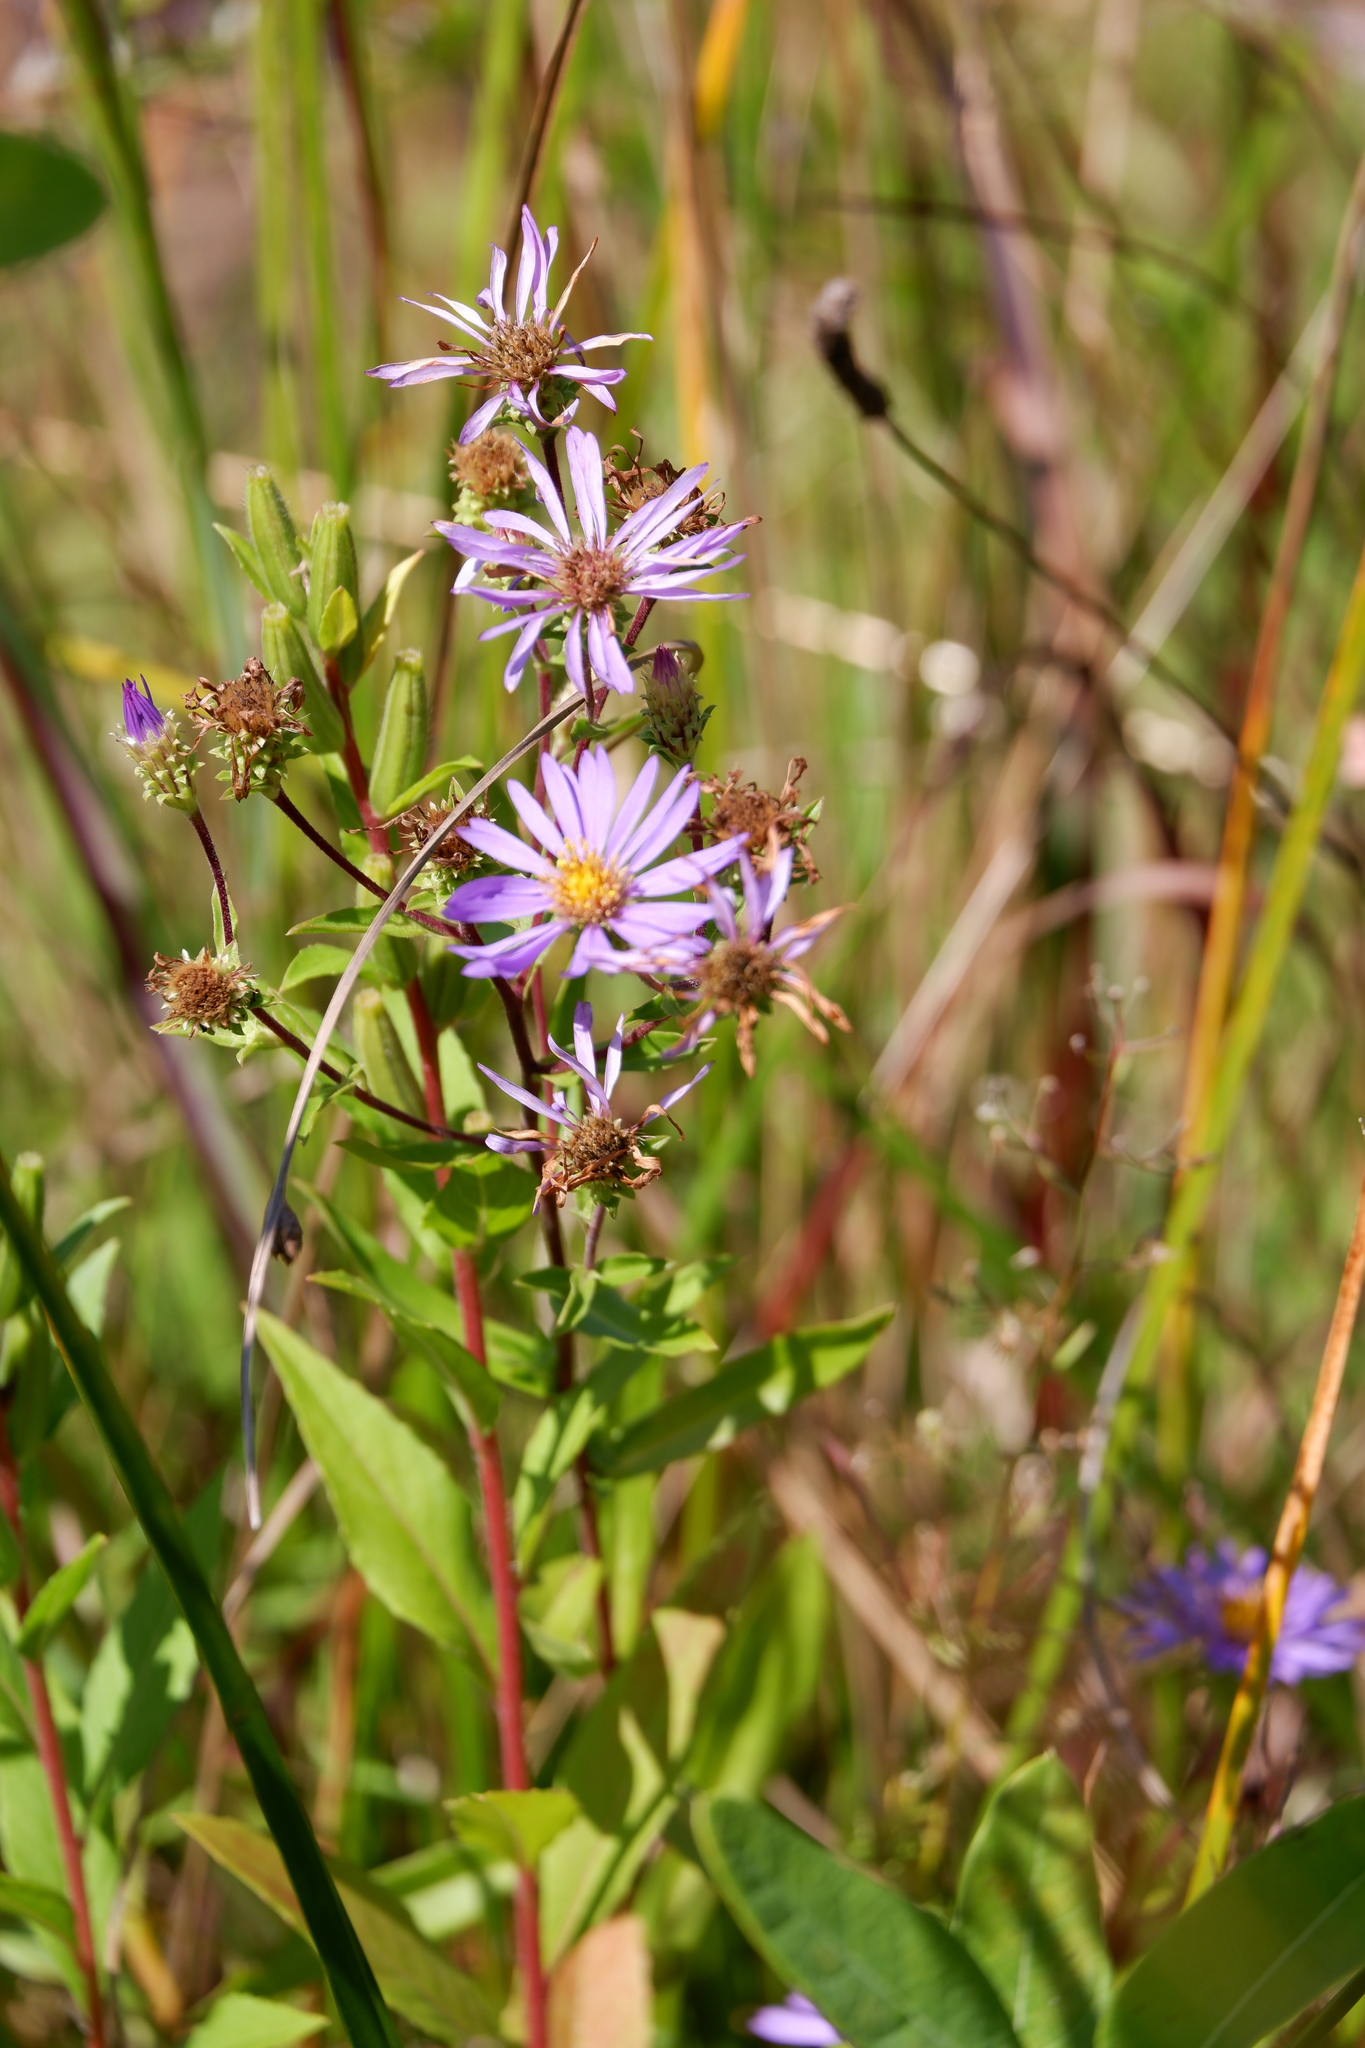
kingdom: Plantae
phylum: Tracheophyta
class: Magnoliopsida
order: Asterales
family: Asteraceae
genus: Eurybia
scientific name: Eurybia spectabilis
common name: Low showy aster
